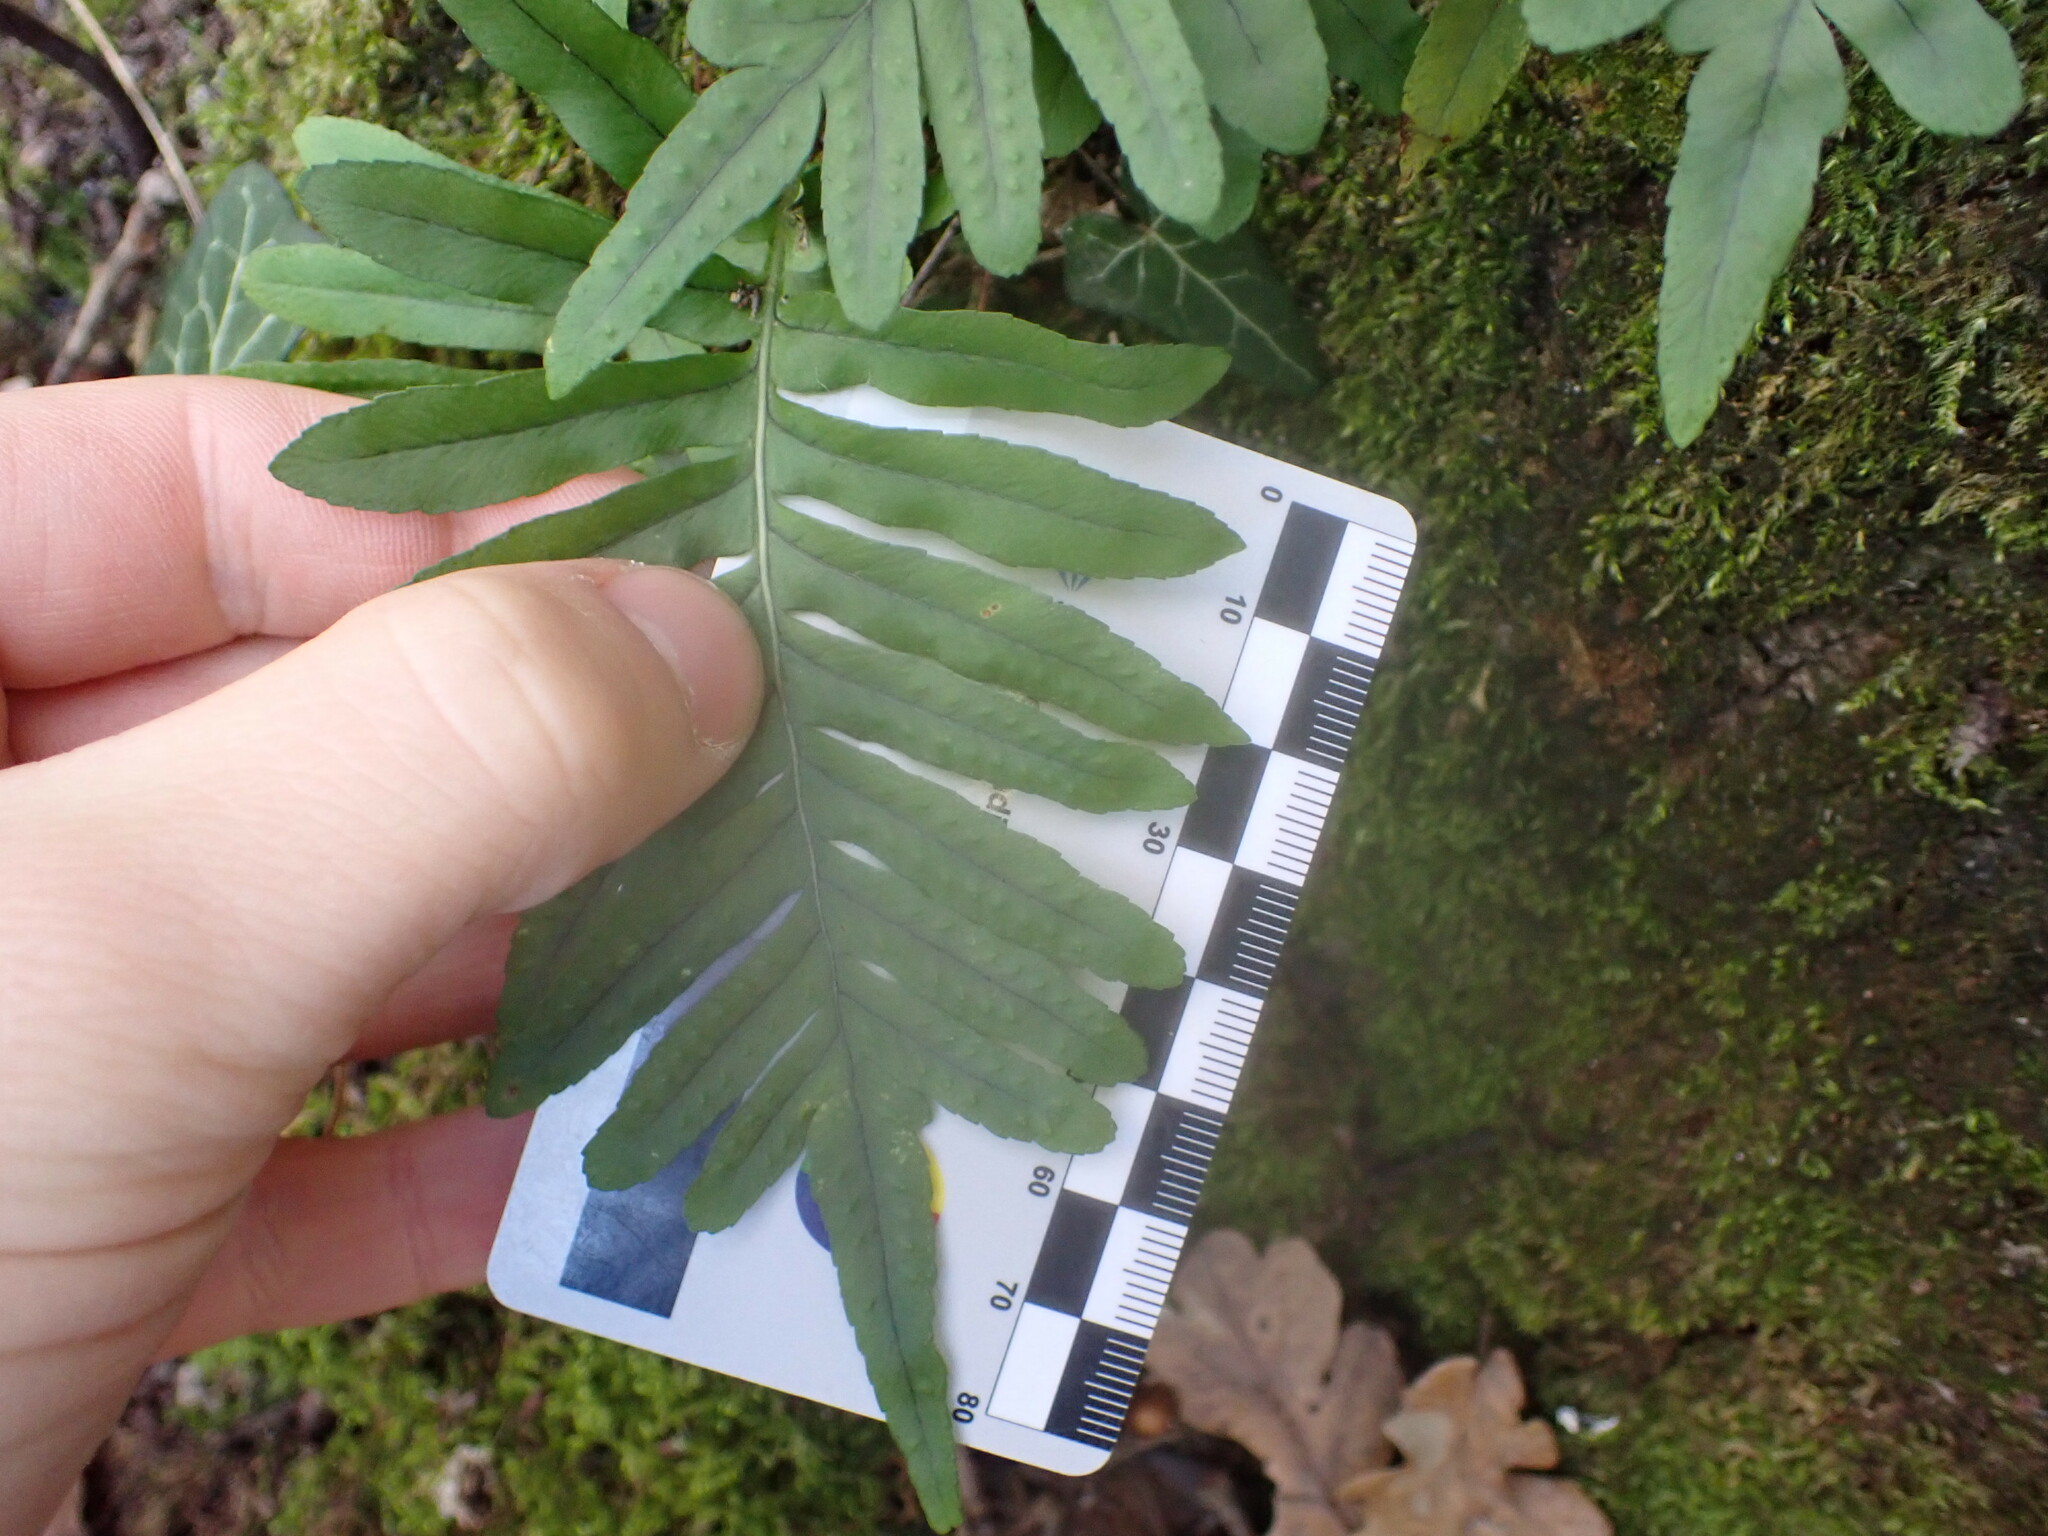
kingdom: Plantae
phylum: Tracheophyta
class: Polypodiopsida
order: Polypodiales
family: Polypodiaceae
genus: Polypodium
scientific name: Polypodium cambricum
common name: Southern polypody
